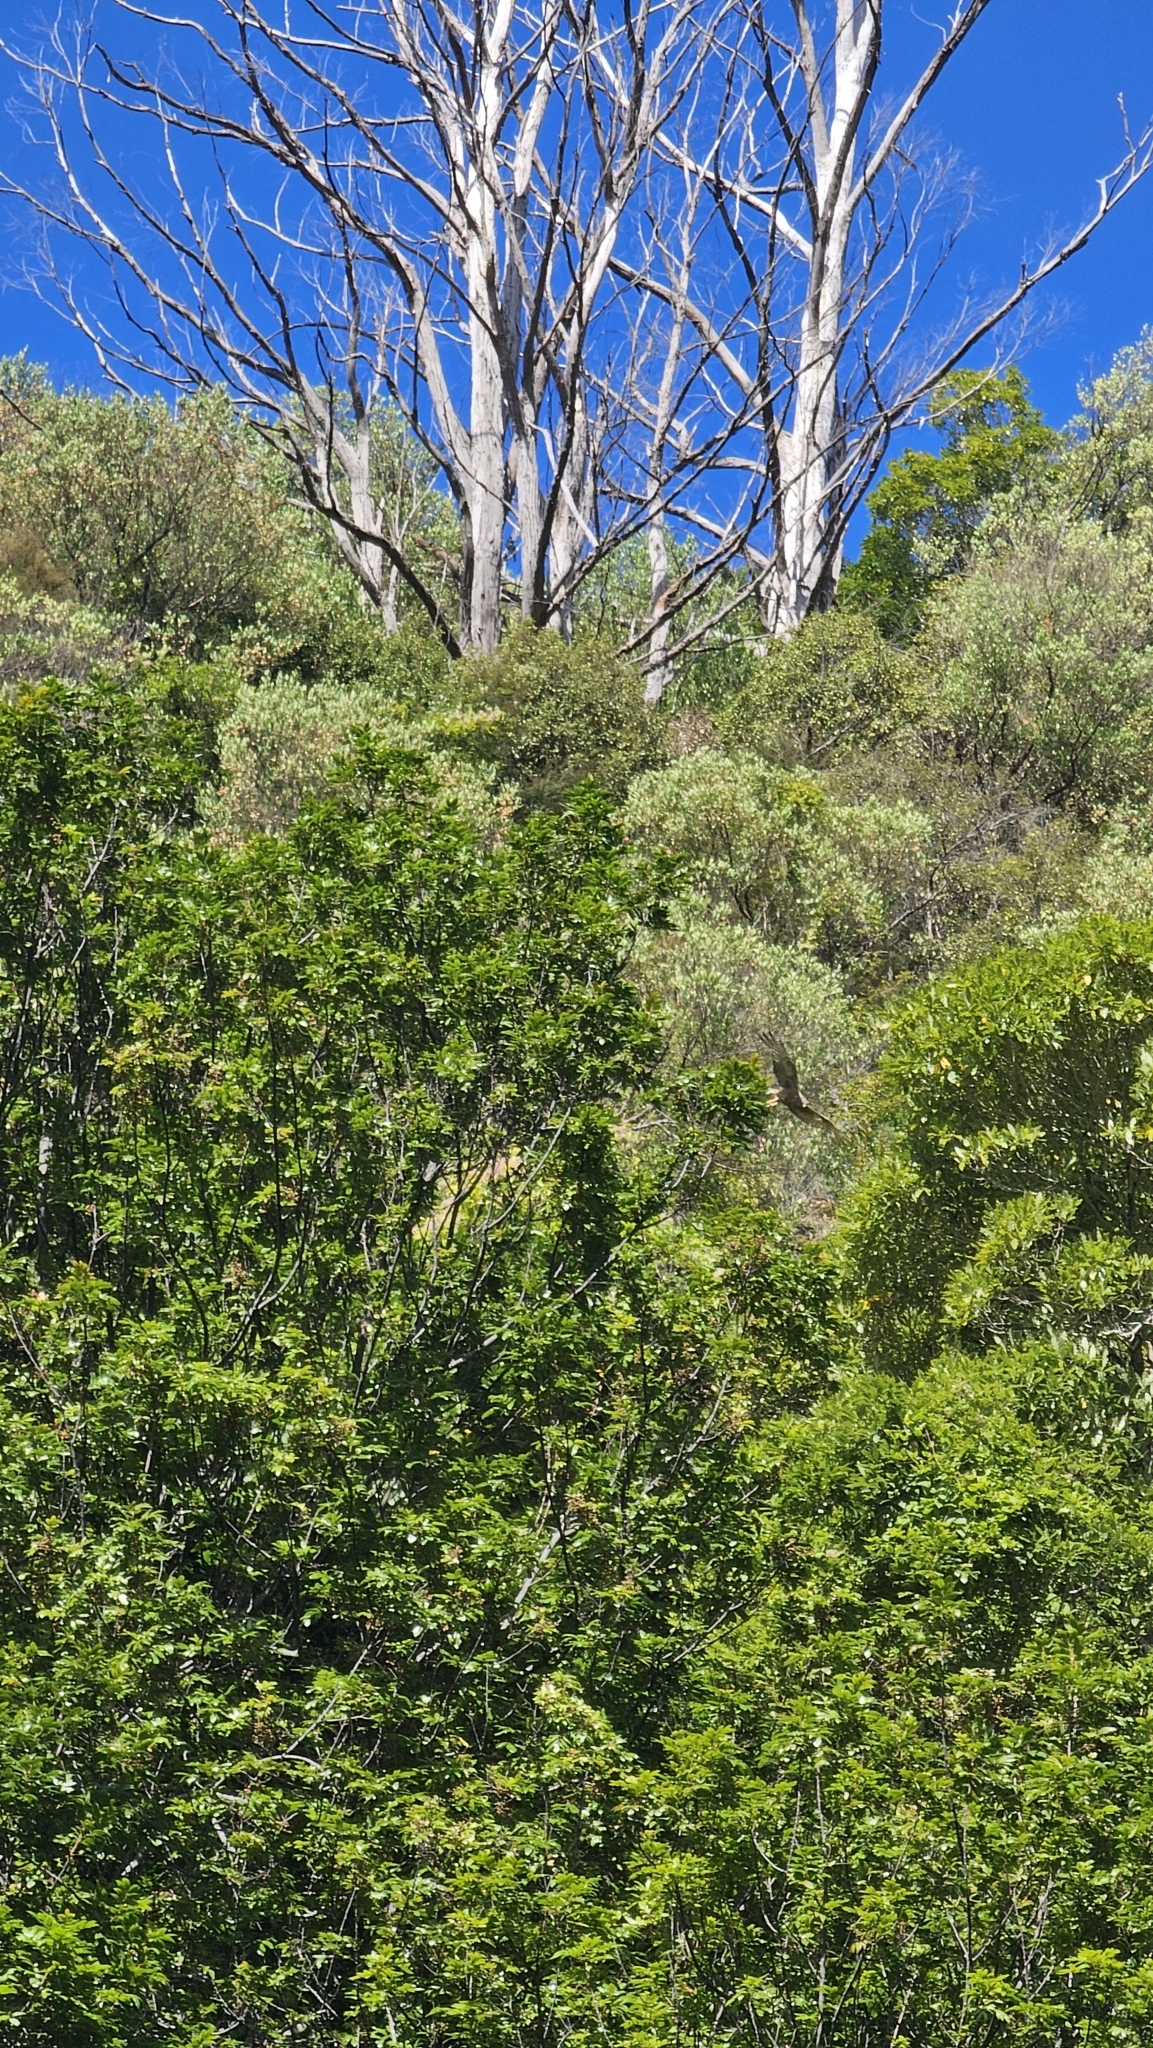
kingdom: Animalia
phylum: Chordata
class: Aves
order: Accipitriformes
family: Accipitridae
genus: Circus
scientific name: Circus approximans
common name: Swamp harrier
